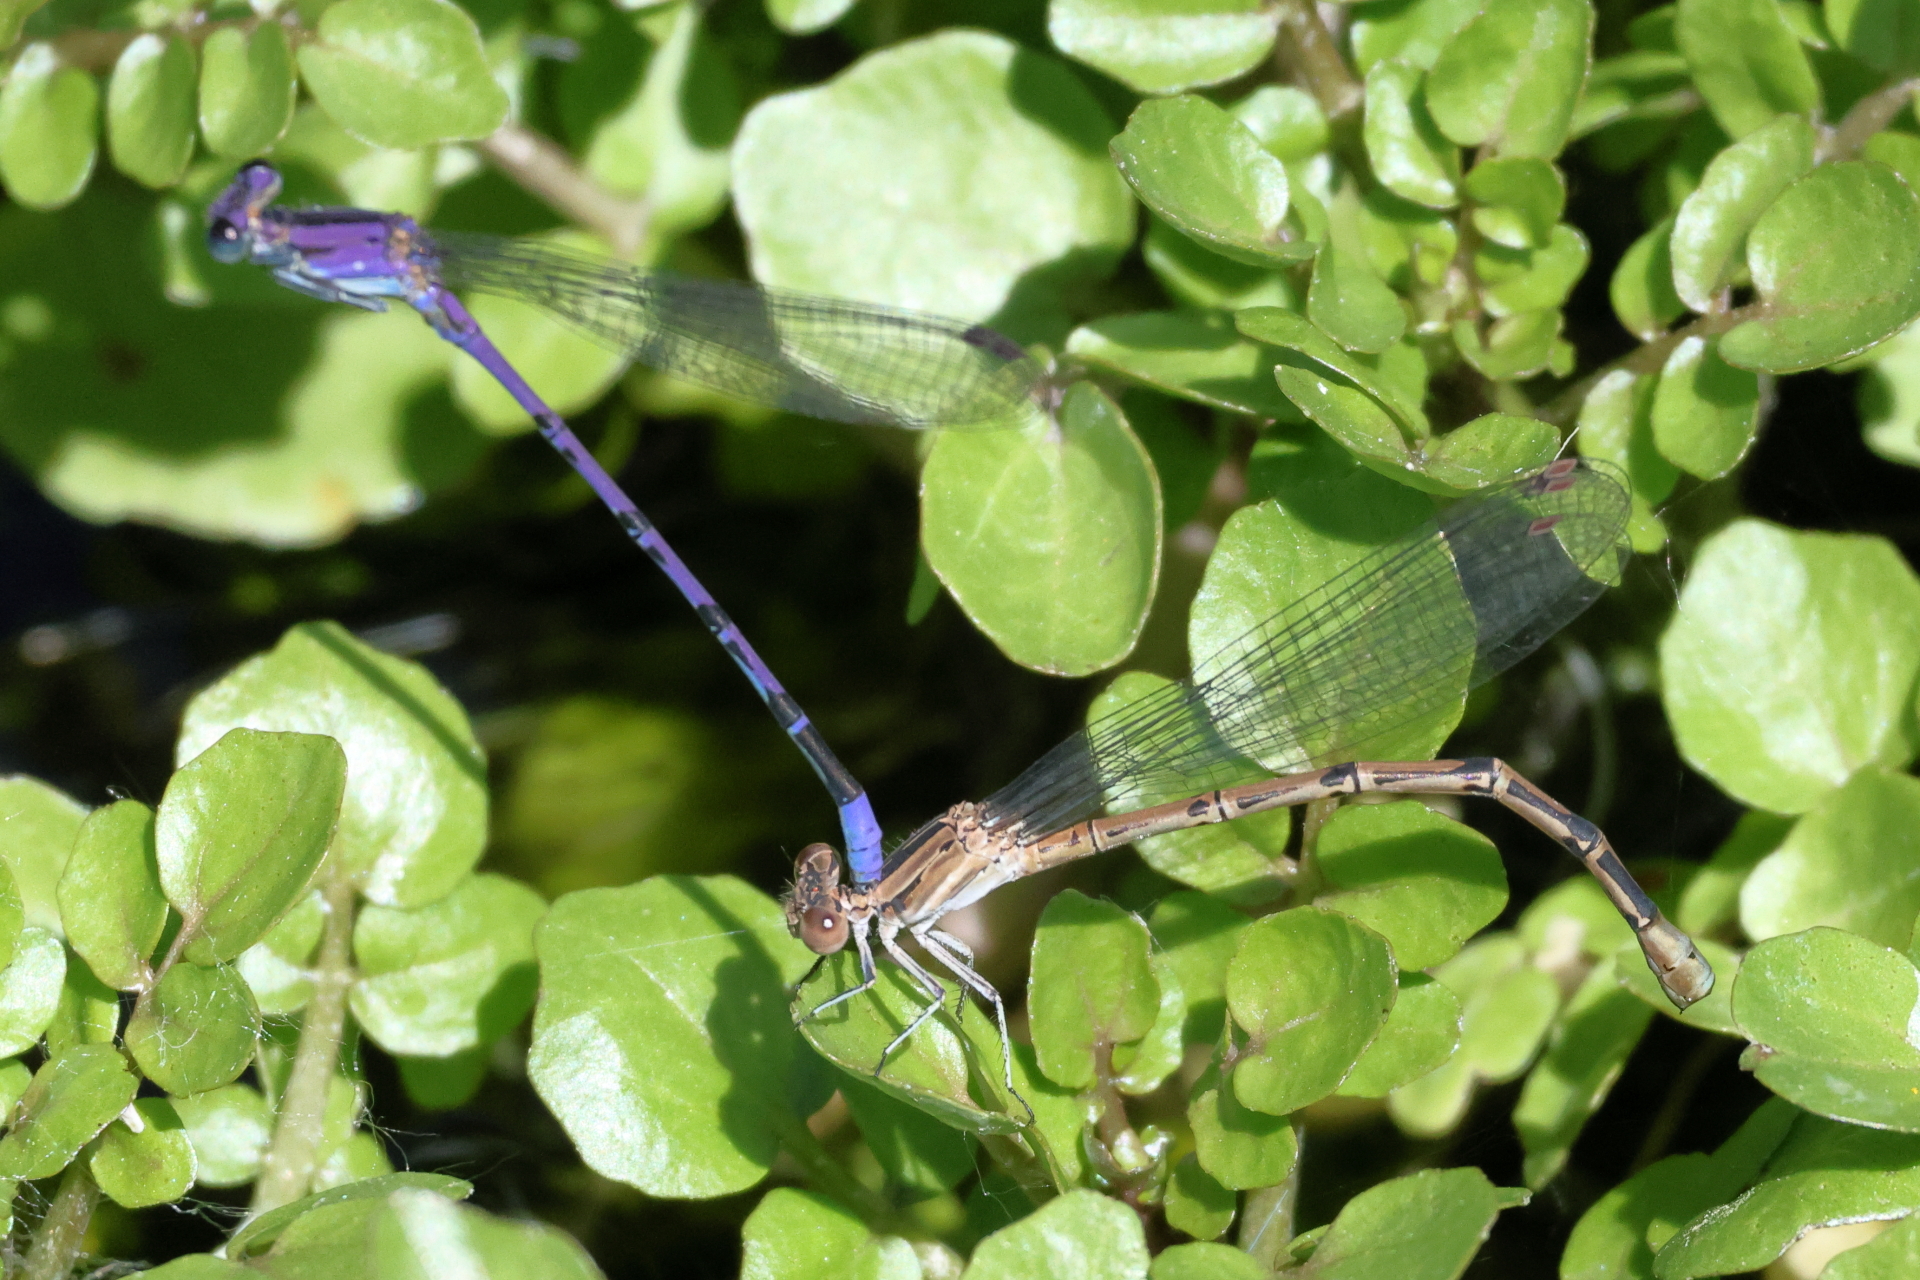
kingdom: Animalia
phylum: Arthropoda
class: Insecta
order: Odonata
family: Coenagrionidae
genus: Argia
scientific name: Argia funebris
